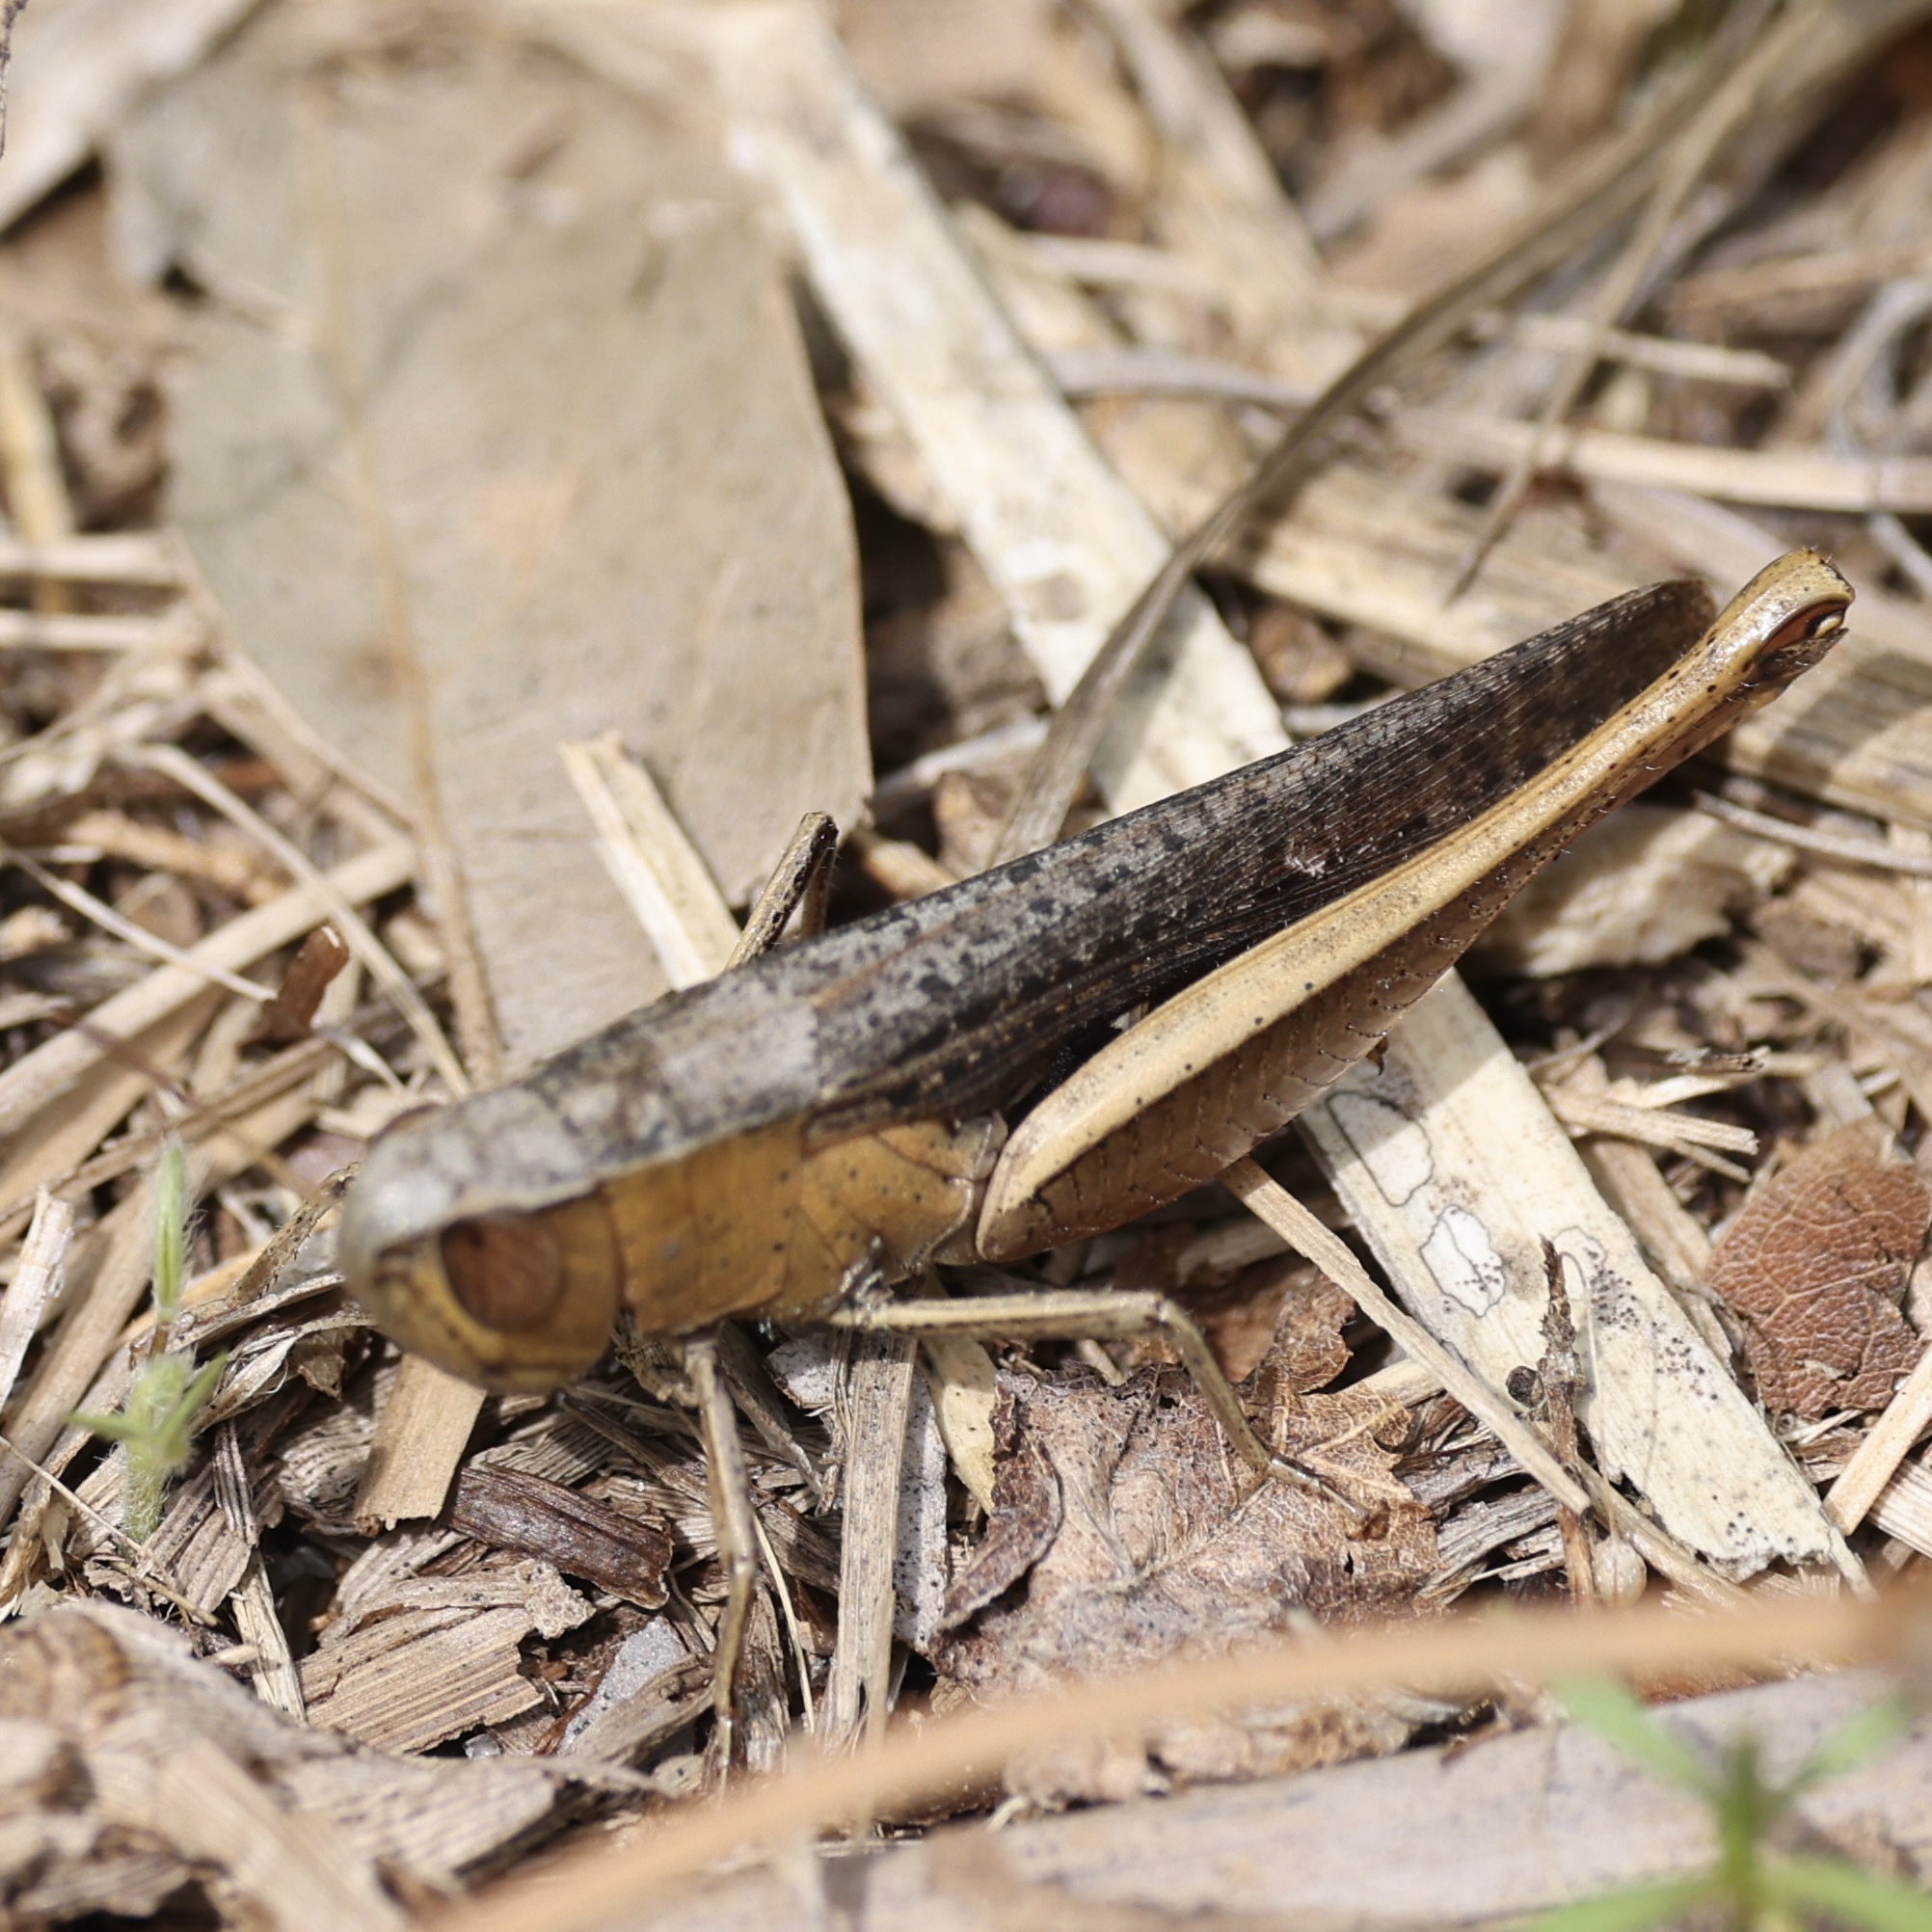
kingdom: Animalia
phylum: Arthropoda
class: Insecta
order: Orthoptera
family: Acrididae
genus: Amblytropidia
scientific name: Amblytropidia mysteca
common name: Brown winter grasshopper
